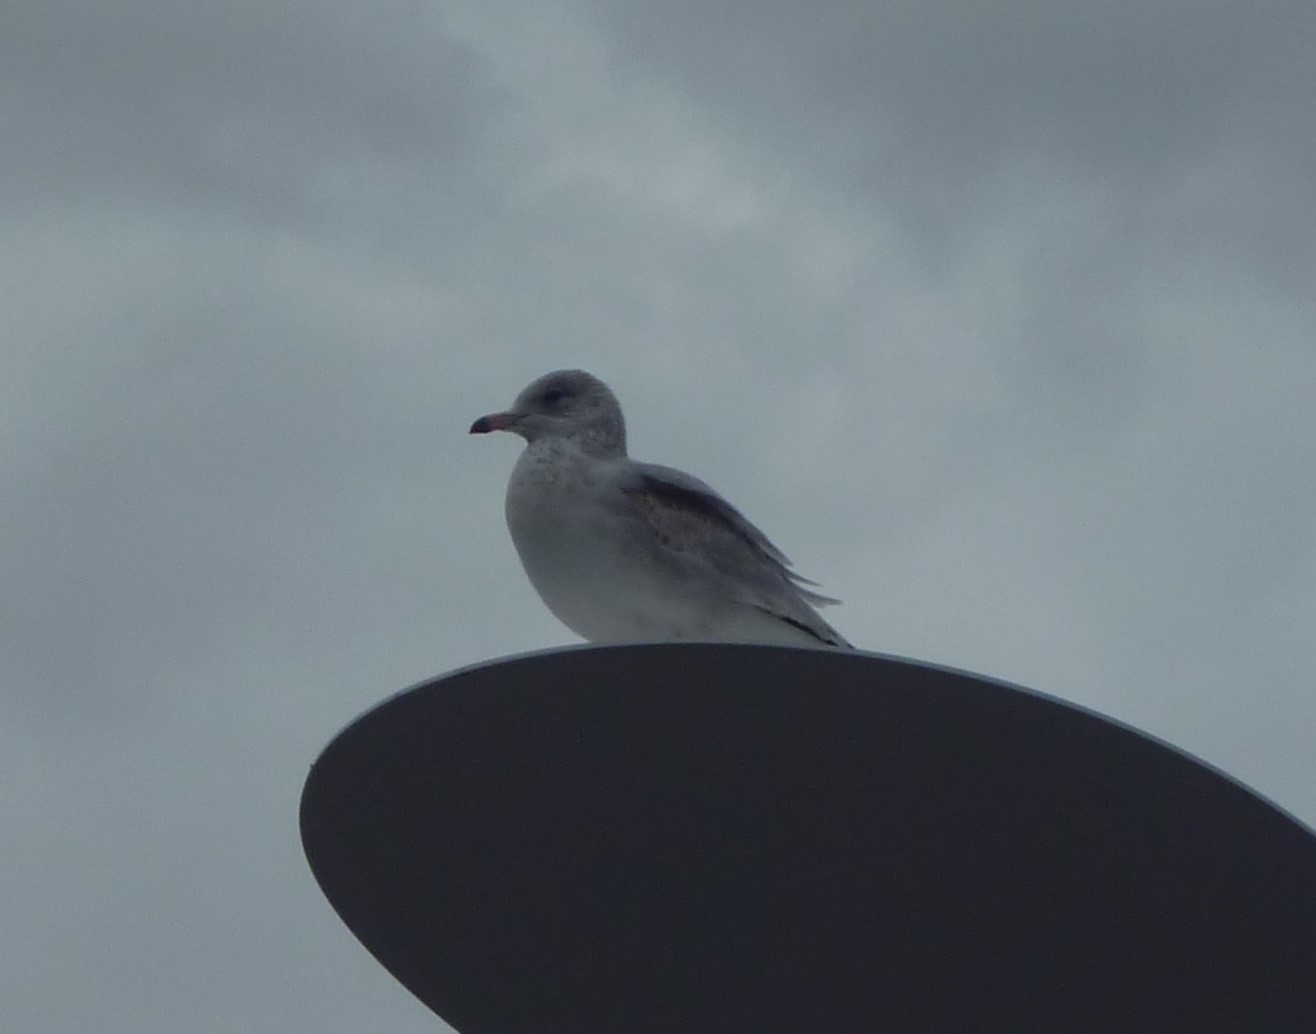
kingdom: Animalia
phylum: Chordata
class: Aves
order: Charadriiformes
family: Laridae
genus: Larus
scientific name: Larus delawarensis
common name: Ring-billed gull
